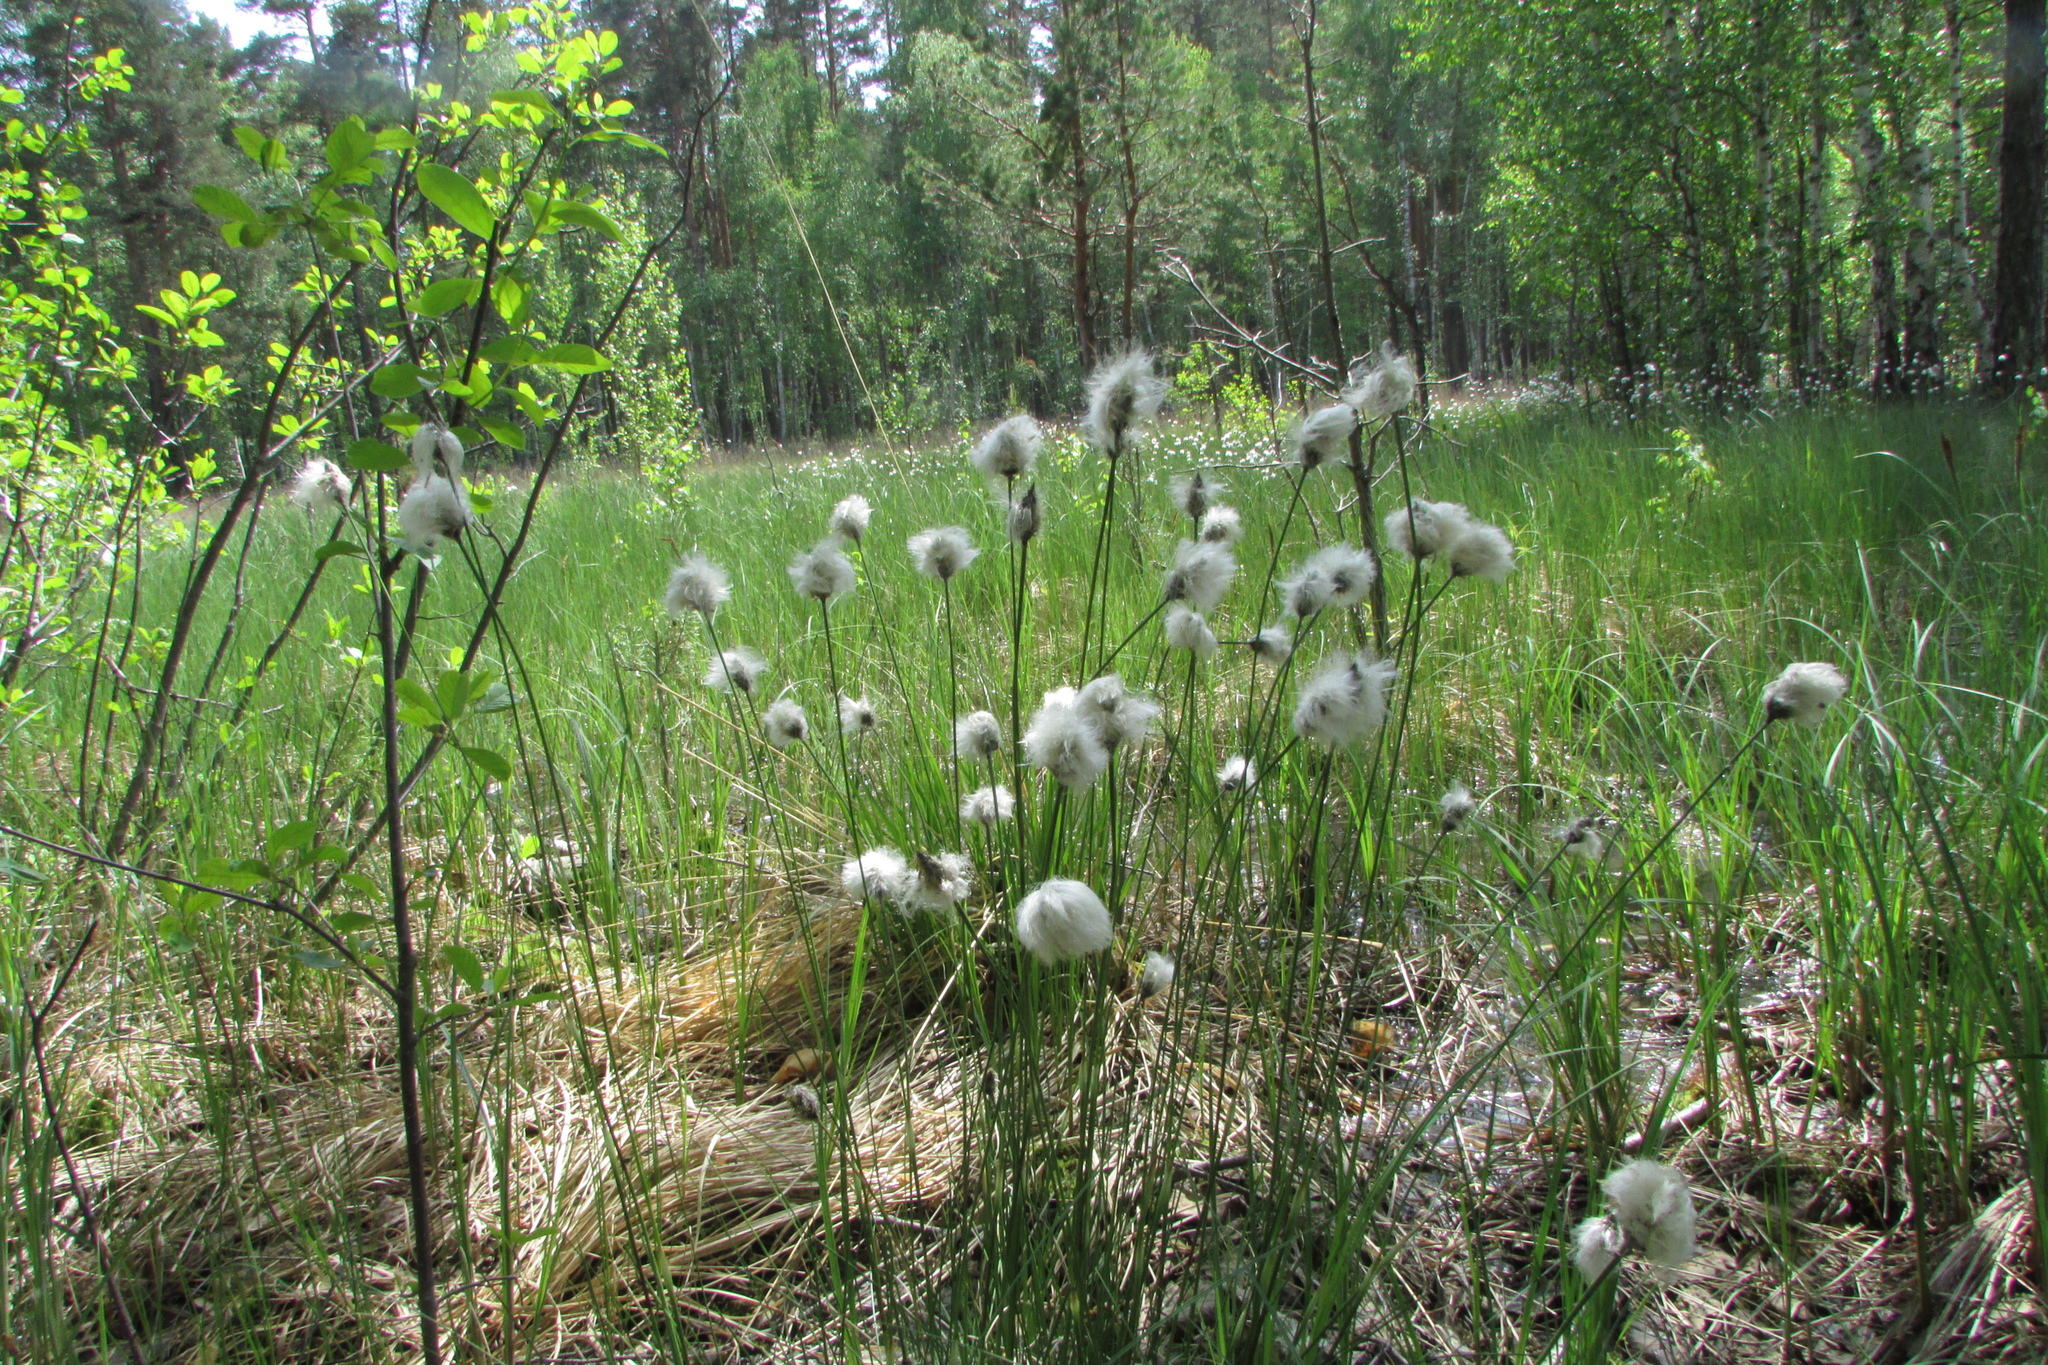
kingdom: Plantae
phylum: Tracheophyta
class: Liliopsida
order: Poales
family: Cyperaceae
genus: Eriophorum
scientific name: Eriophorum vaginatum
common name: Hare's-tail cottongrass
